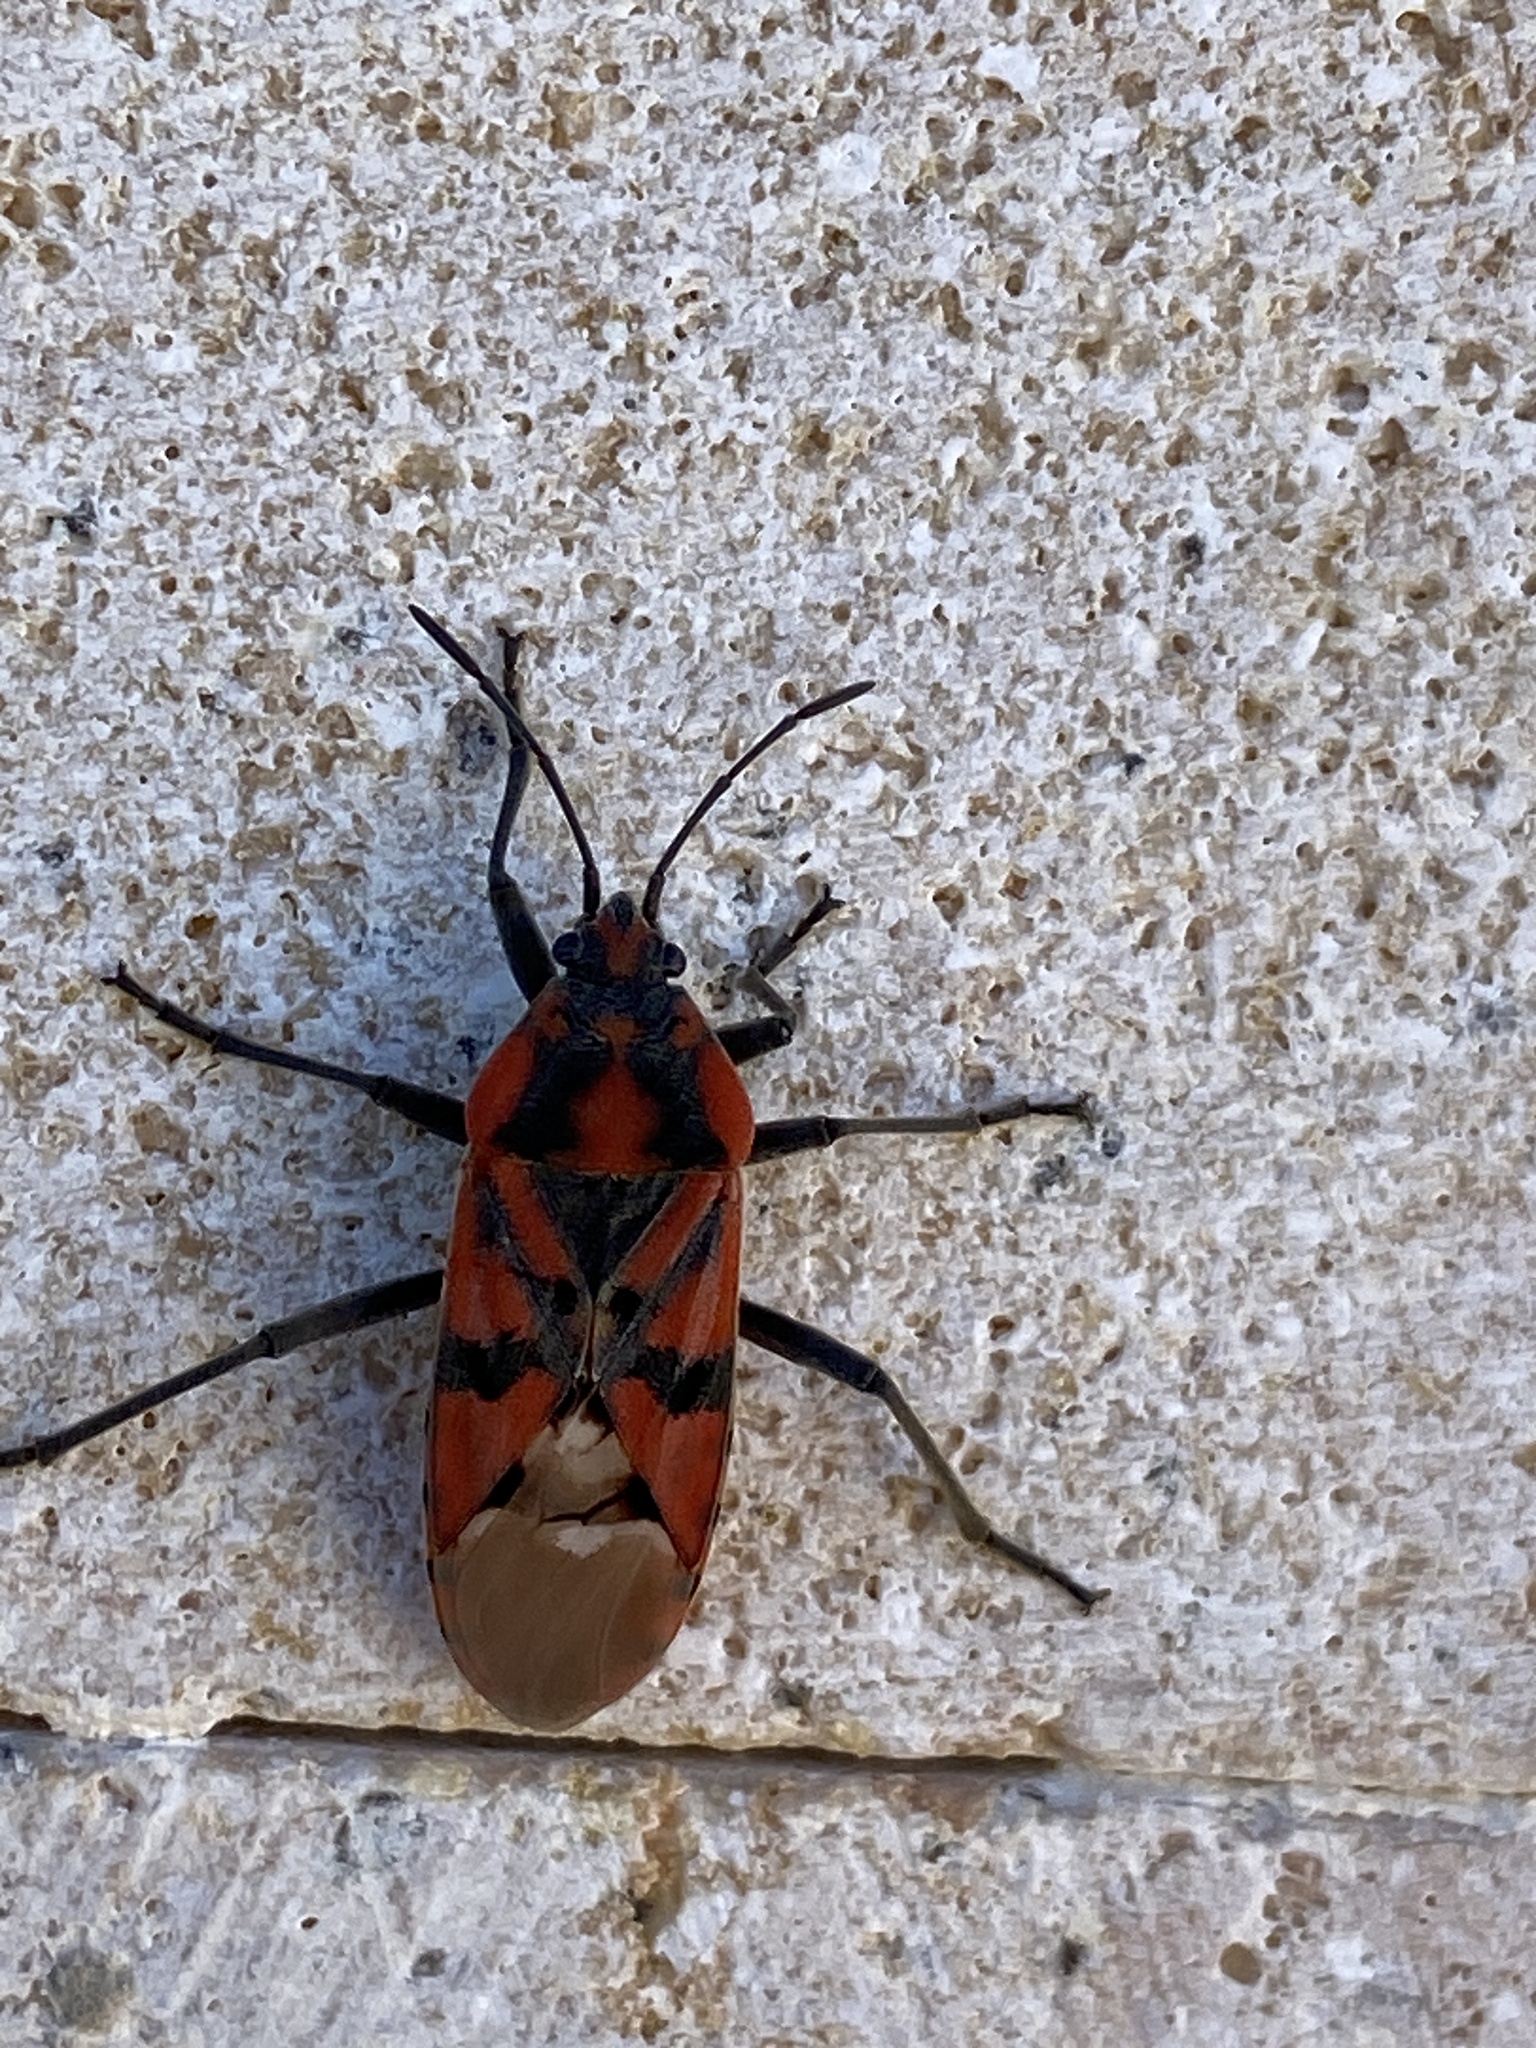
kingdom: Animalia
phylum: Arthropoda
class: Insecta
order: Hemiptera
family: Lygaeidae
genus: Spilostethus
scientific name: Spilostethus pandurus
